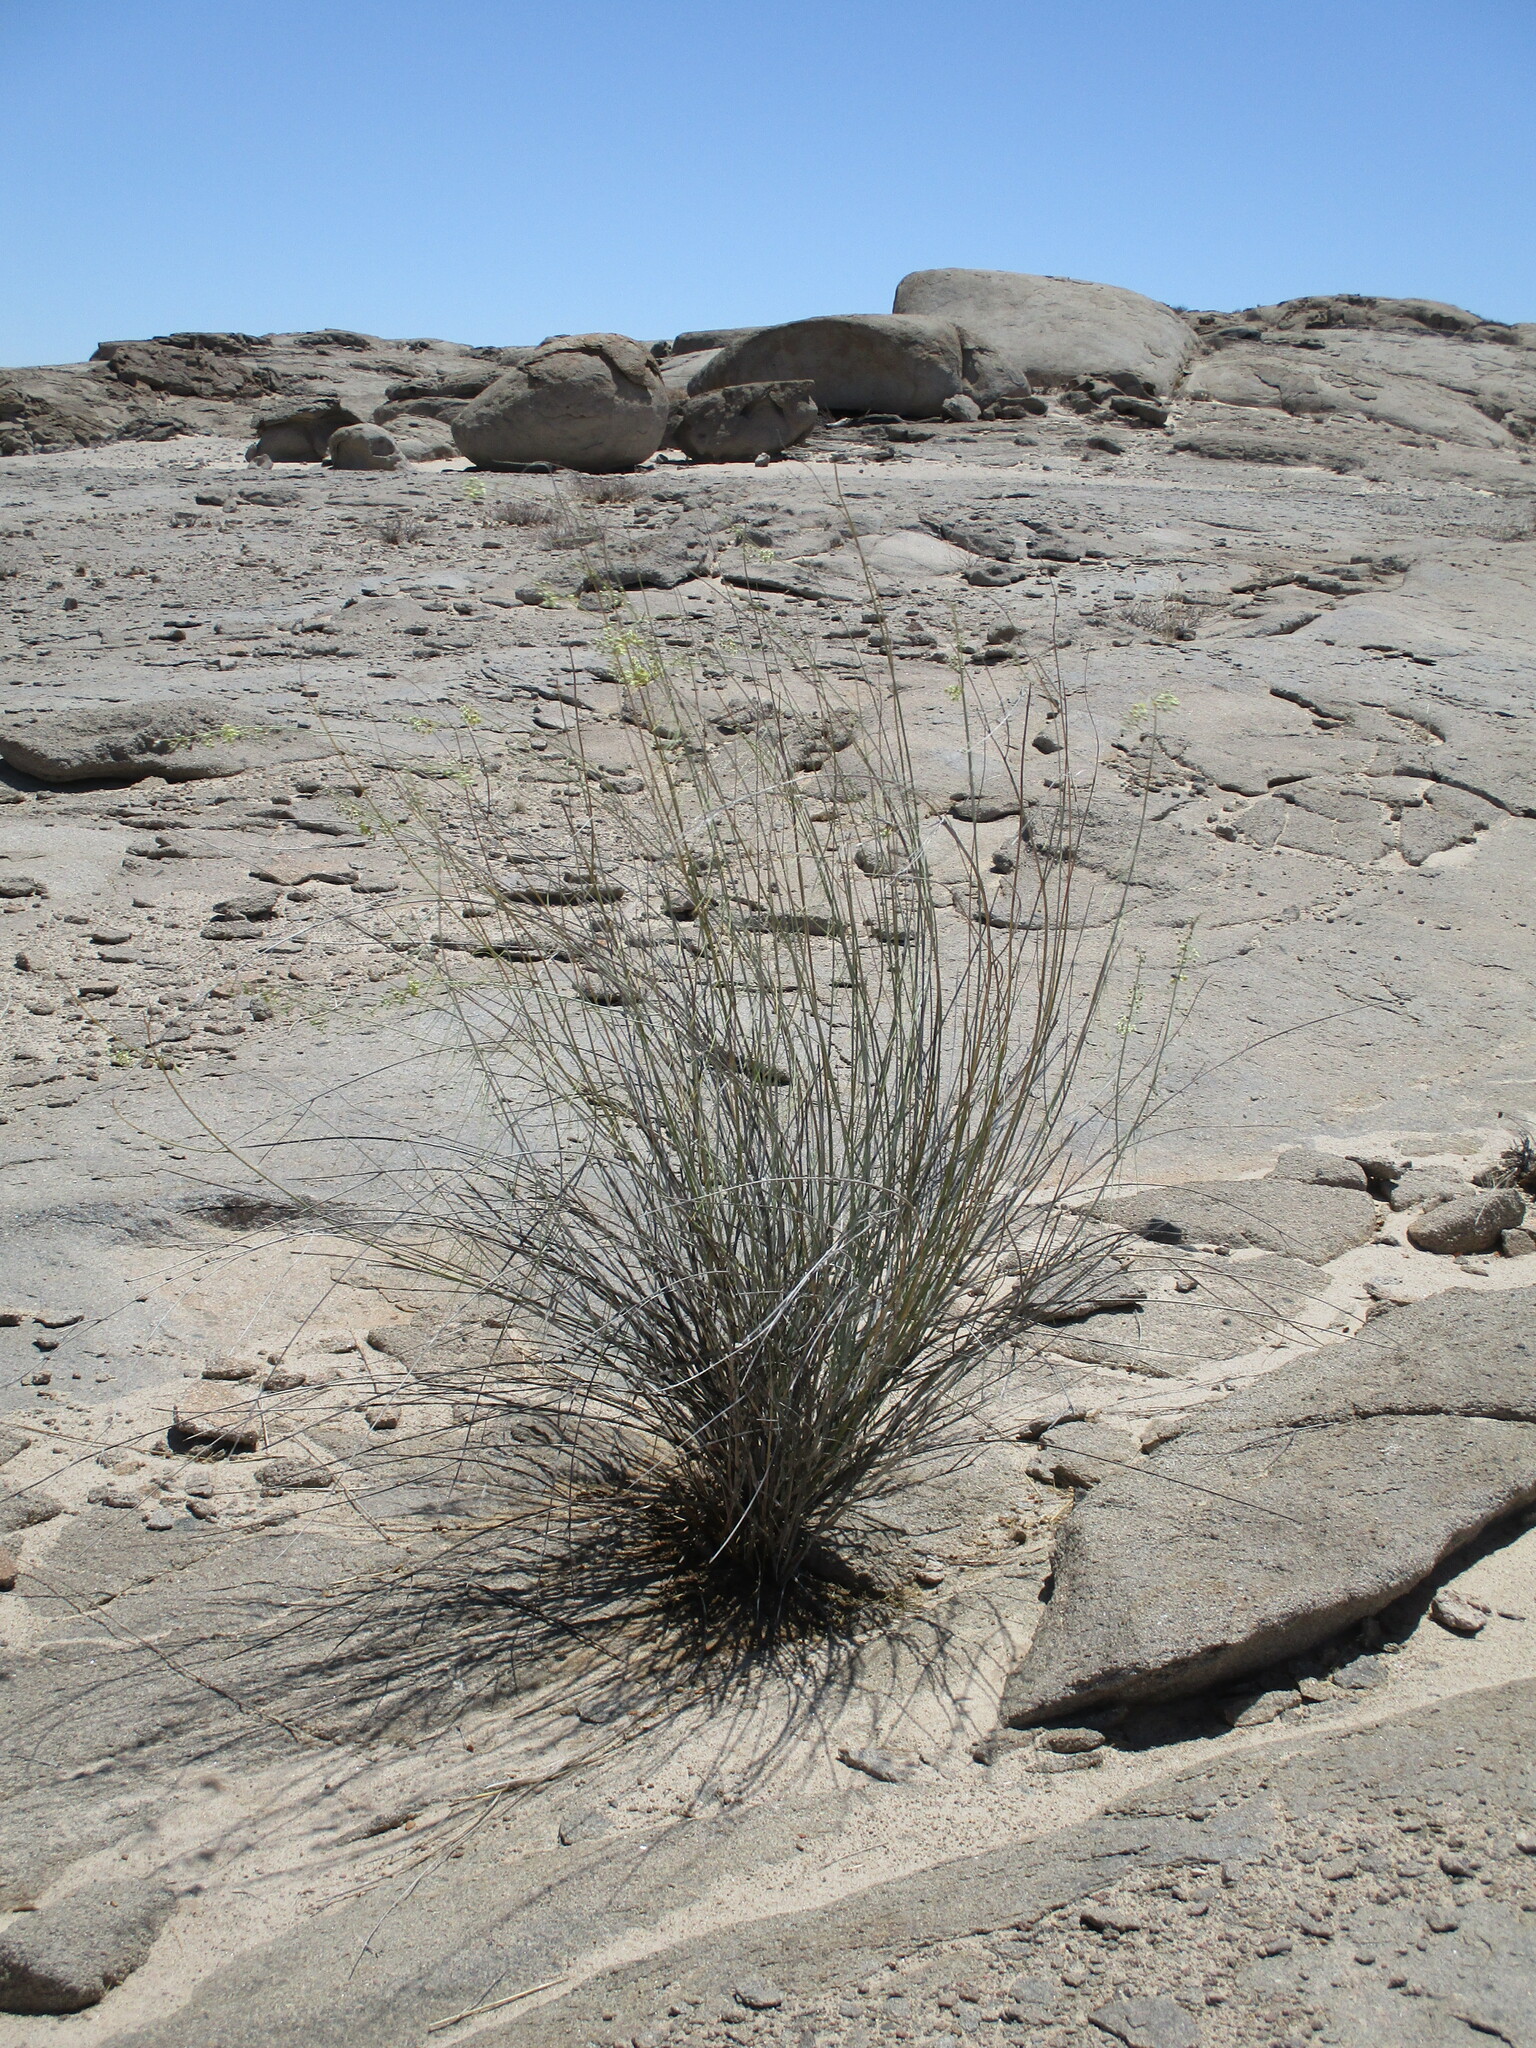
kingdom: Plantae
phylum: Tracheophyta
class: Magnoliopsida
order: Gentianales
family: Apocynaceae
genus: Gomphocarpus
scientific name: Gomphocarpus filiformis
